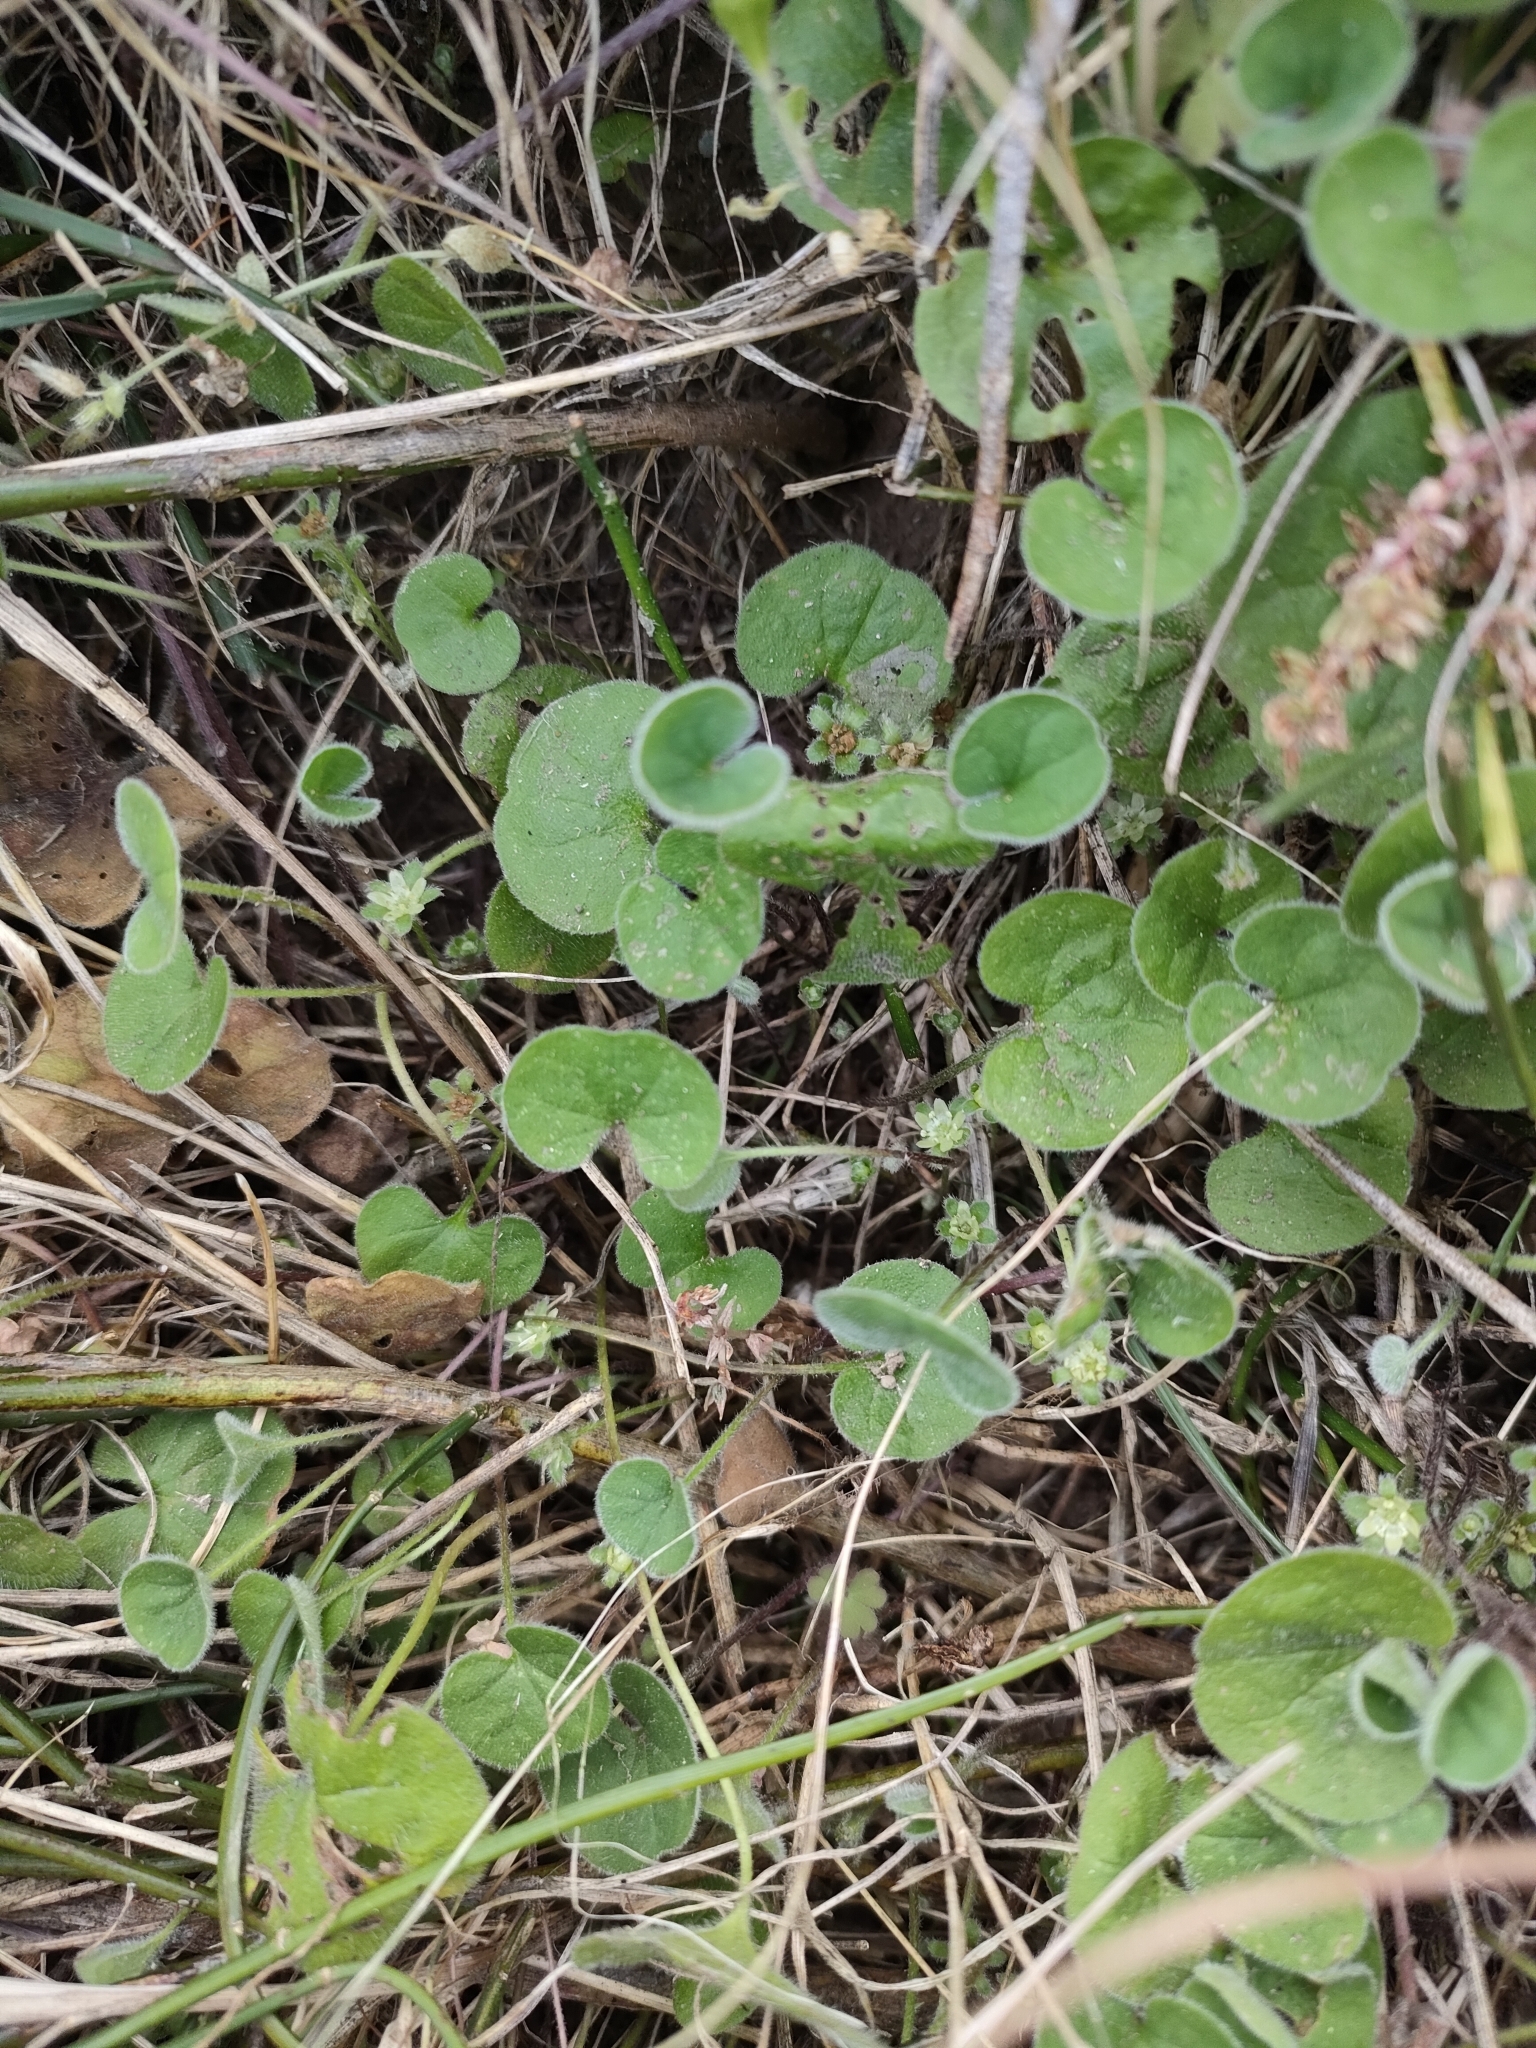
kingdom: Plantae
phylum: Tracheophyta
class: Magnoliopsida
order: Solanales
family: Convolvulaceae
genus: Dichondra
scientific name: Dichondra repens
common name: Kidneyweed
